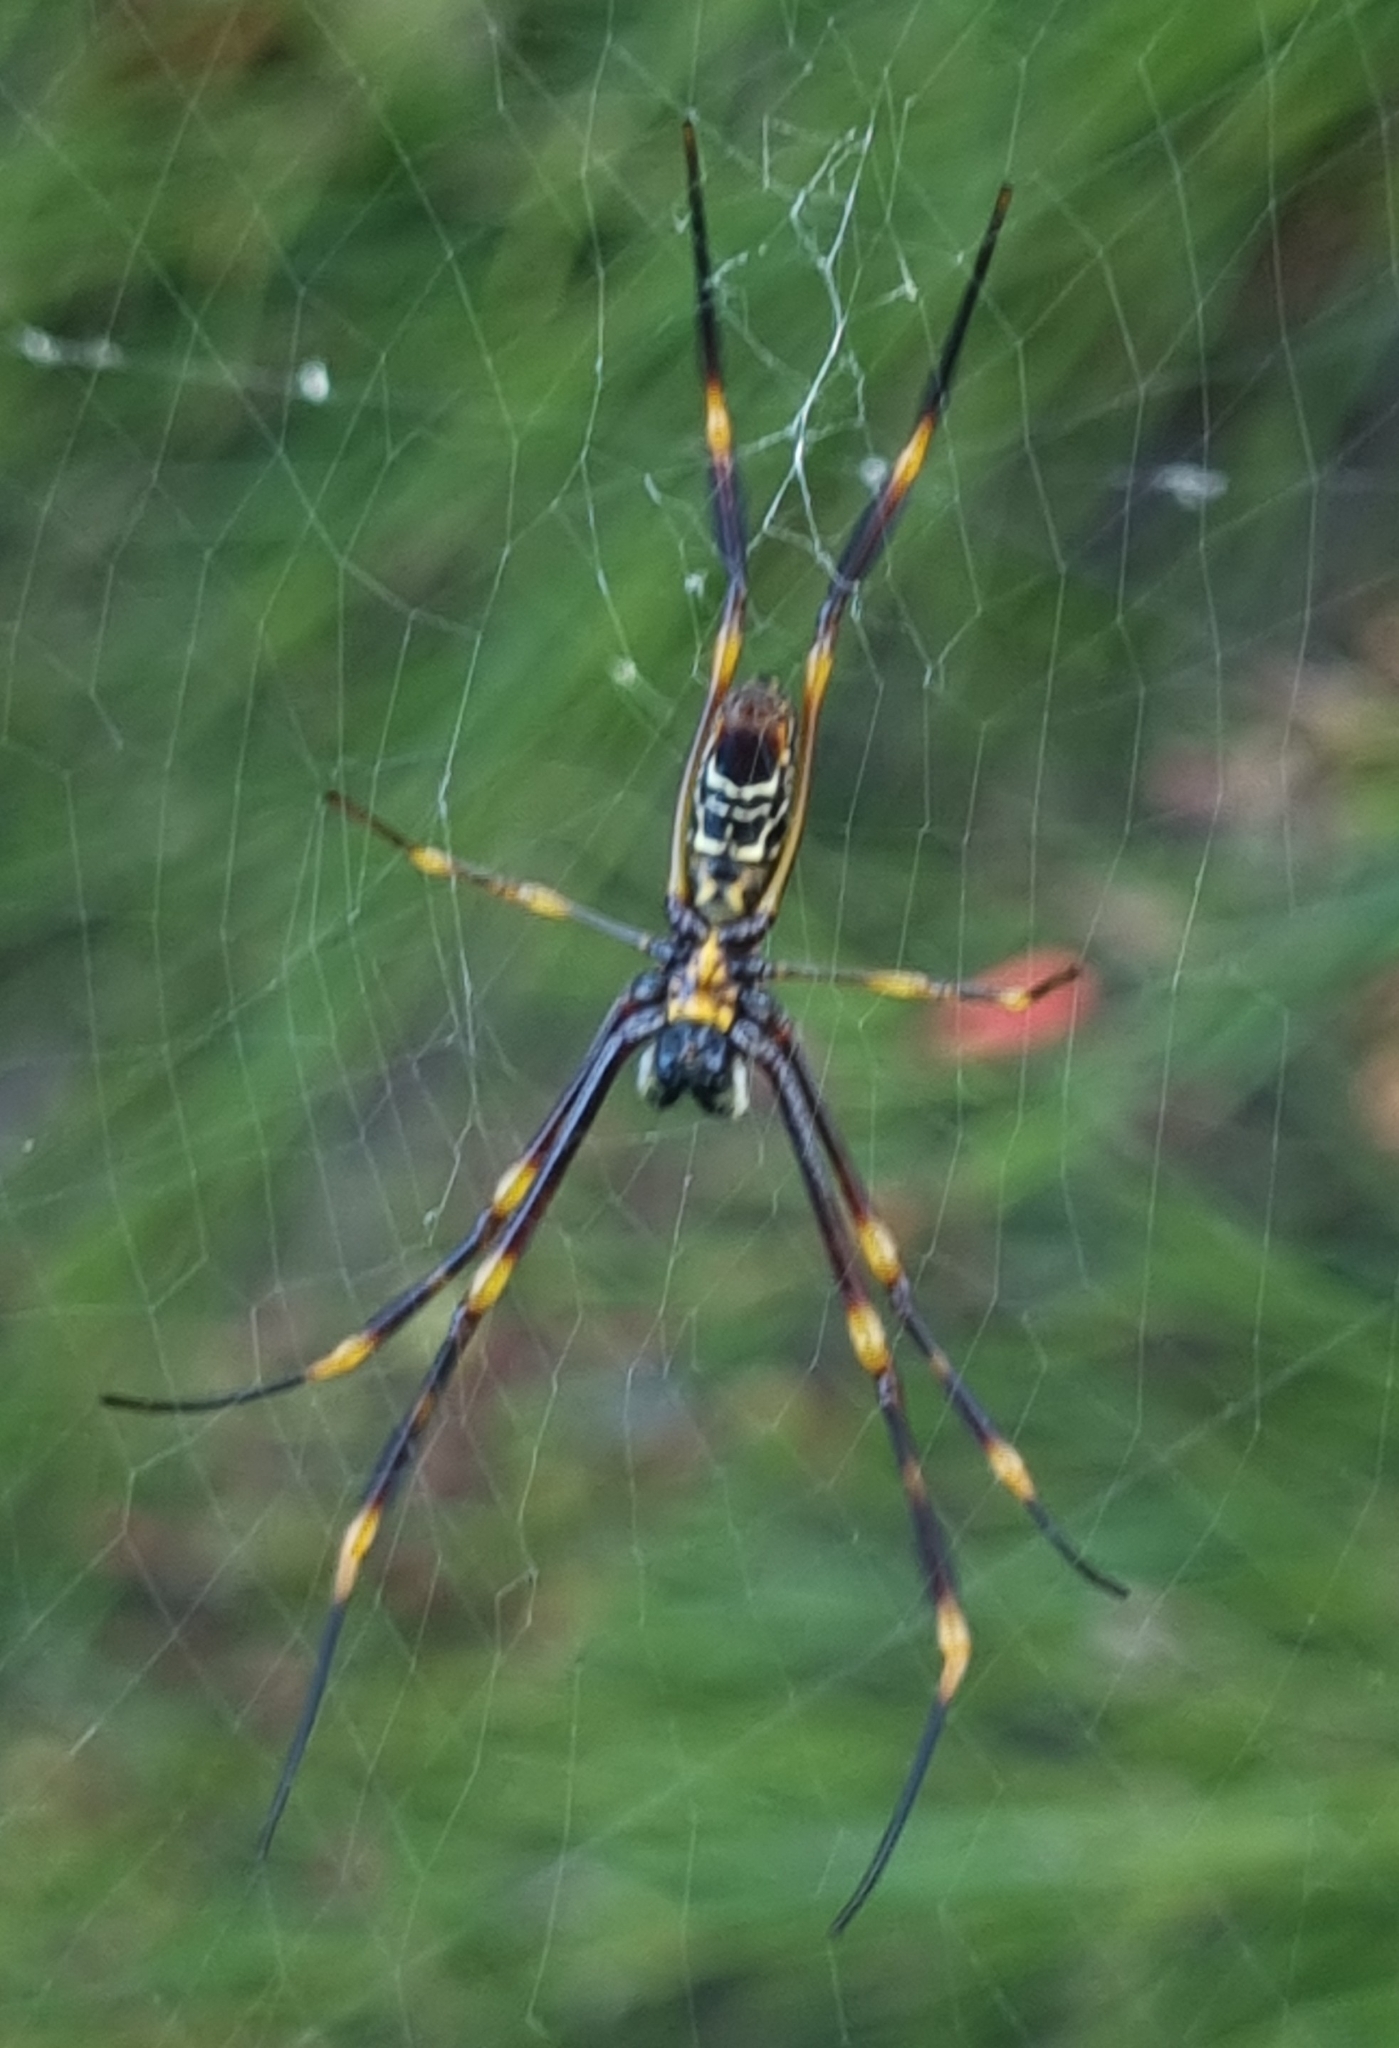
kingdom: Animalia
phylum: Arthropoda
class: Arachnida
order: Araneae
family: Araneidae
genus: Trichonephila
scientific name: Trichonephila plumipes
